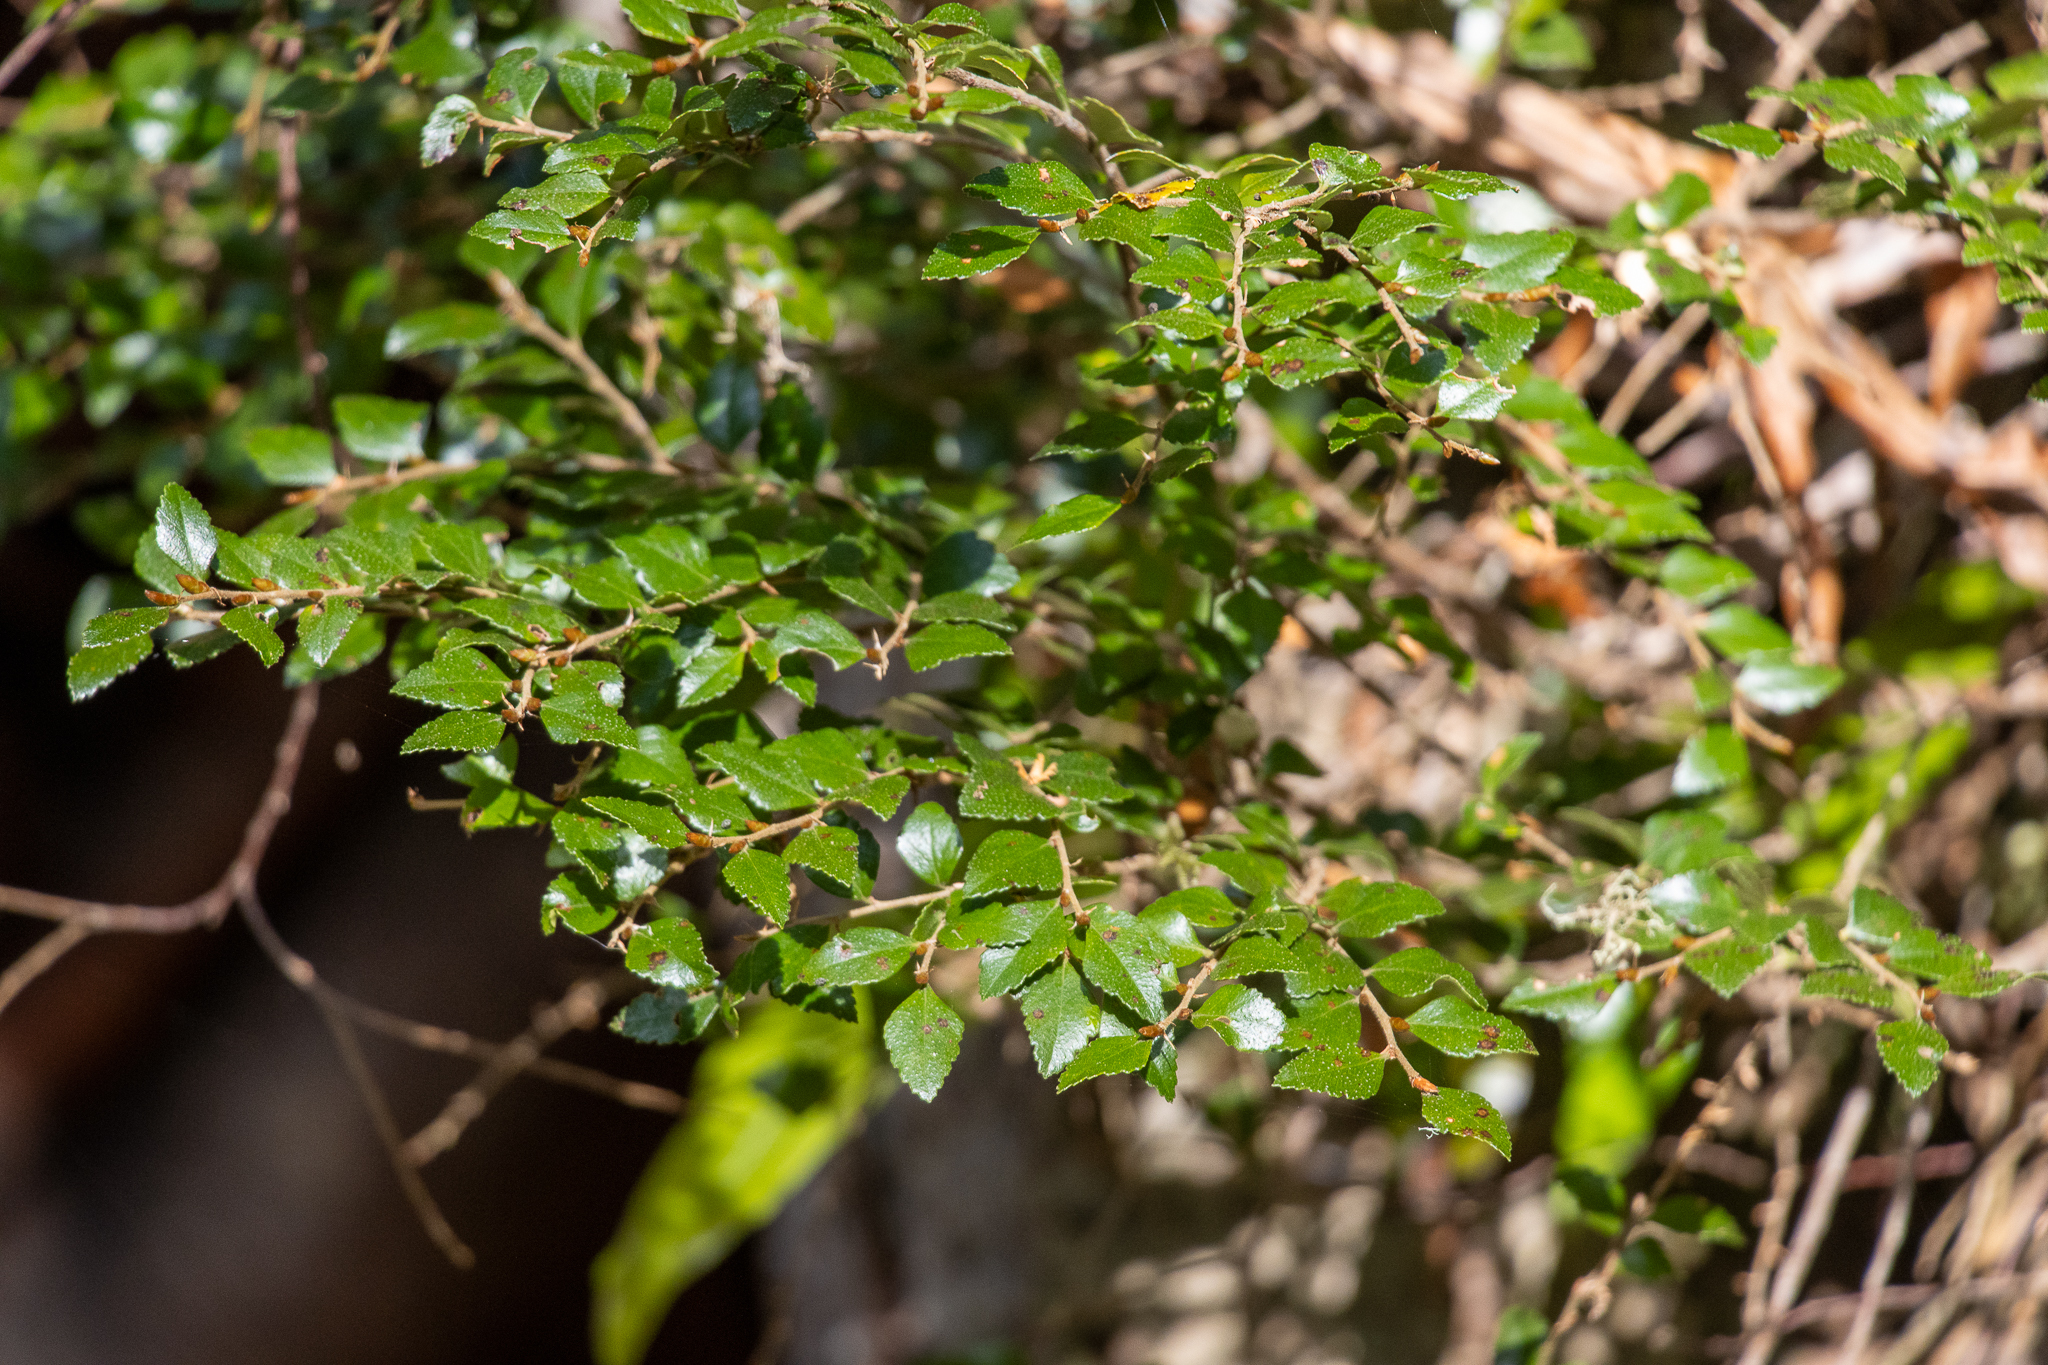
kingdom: Plantae
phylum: Tracheophyta
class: Magnoliopsida
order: Fagales
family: Nothofagaceae
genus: Nothofagus
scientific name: Nothofagus cunninghamii
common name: Myrtle beech
